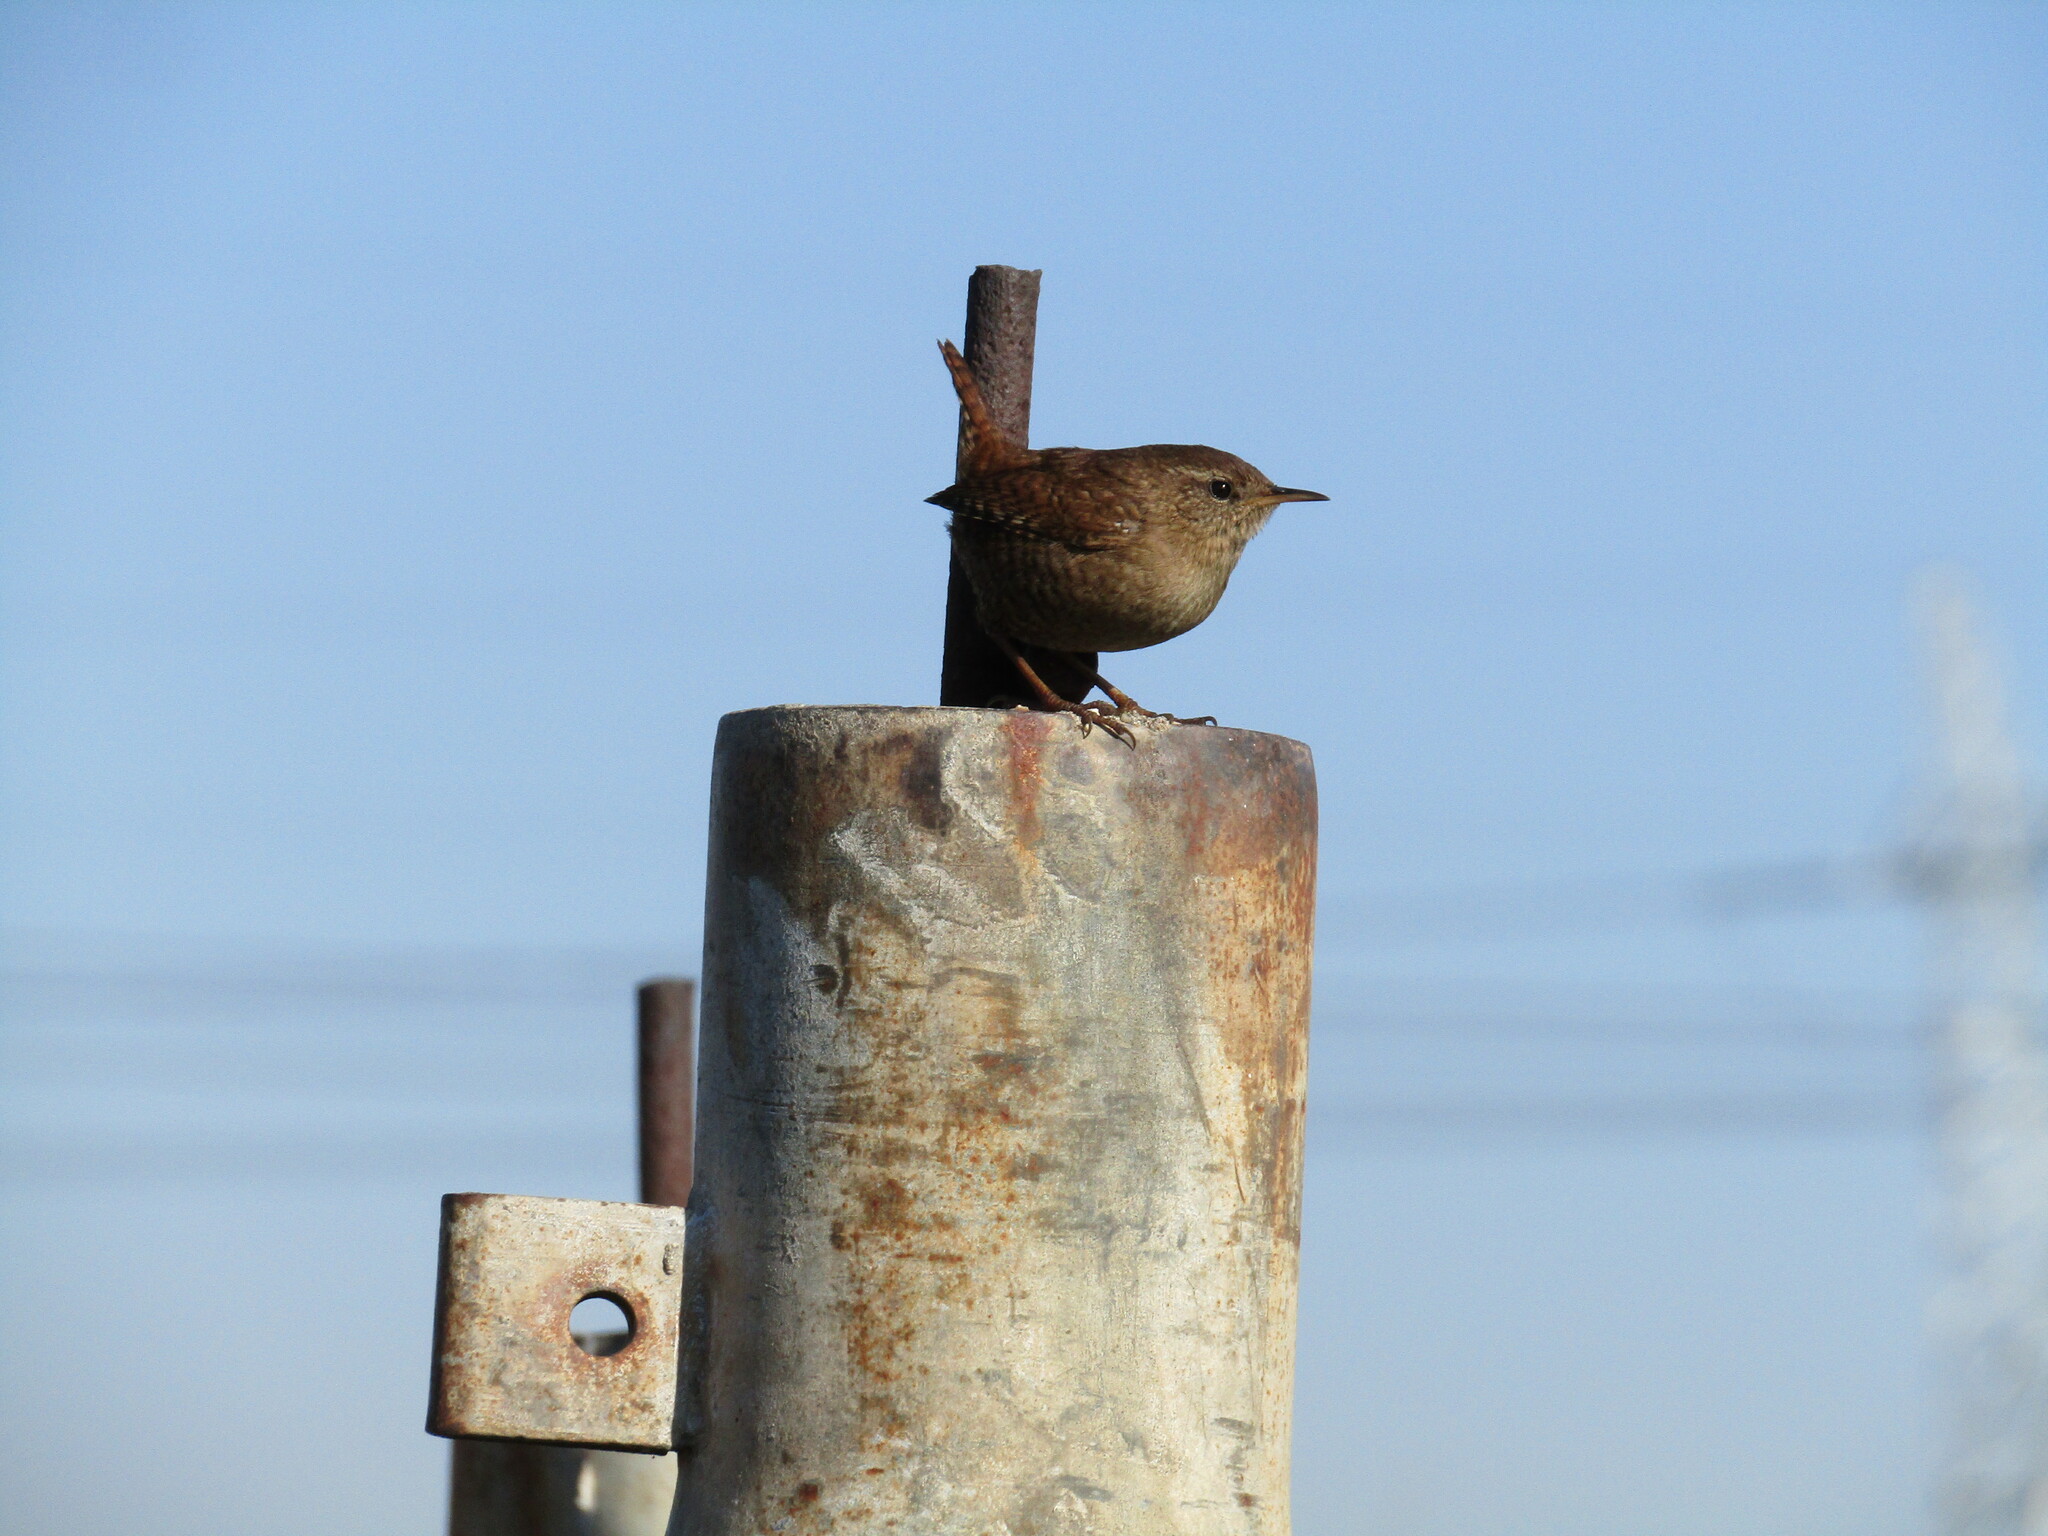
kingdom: Animalia
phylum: Chordata
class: Aves
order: Passeriformes
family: Troglodytidae
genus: Troglodytes
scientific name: Troglodytes troglodytes
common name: Eurasian wren
